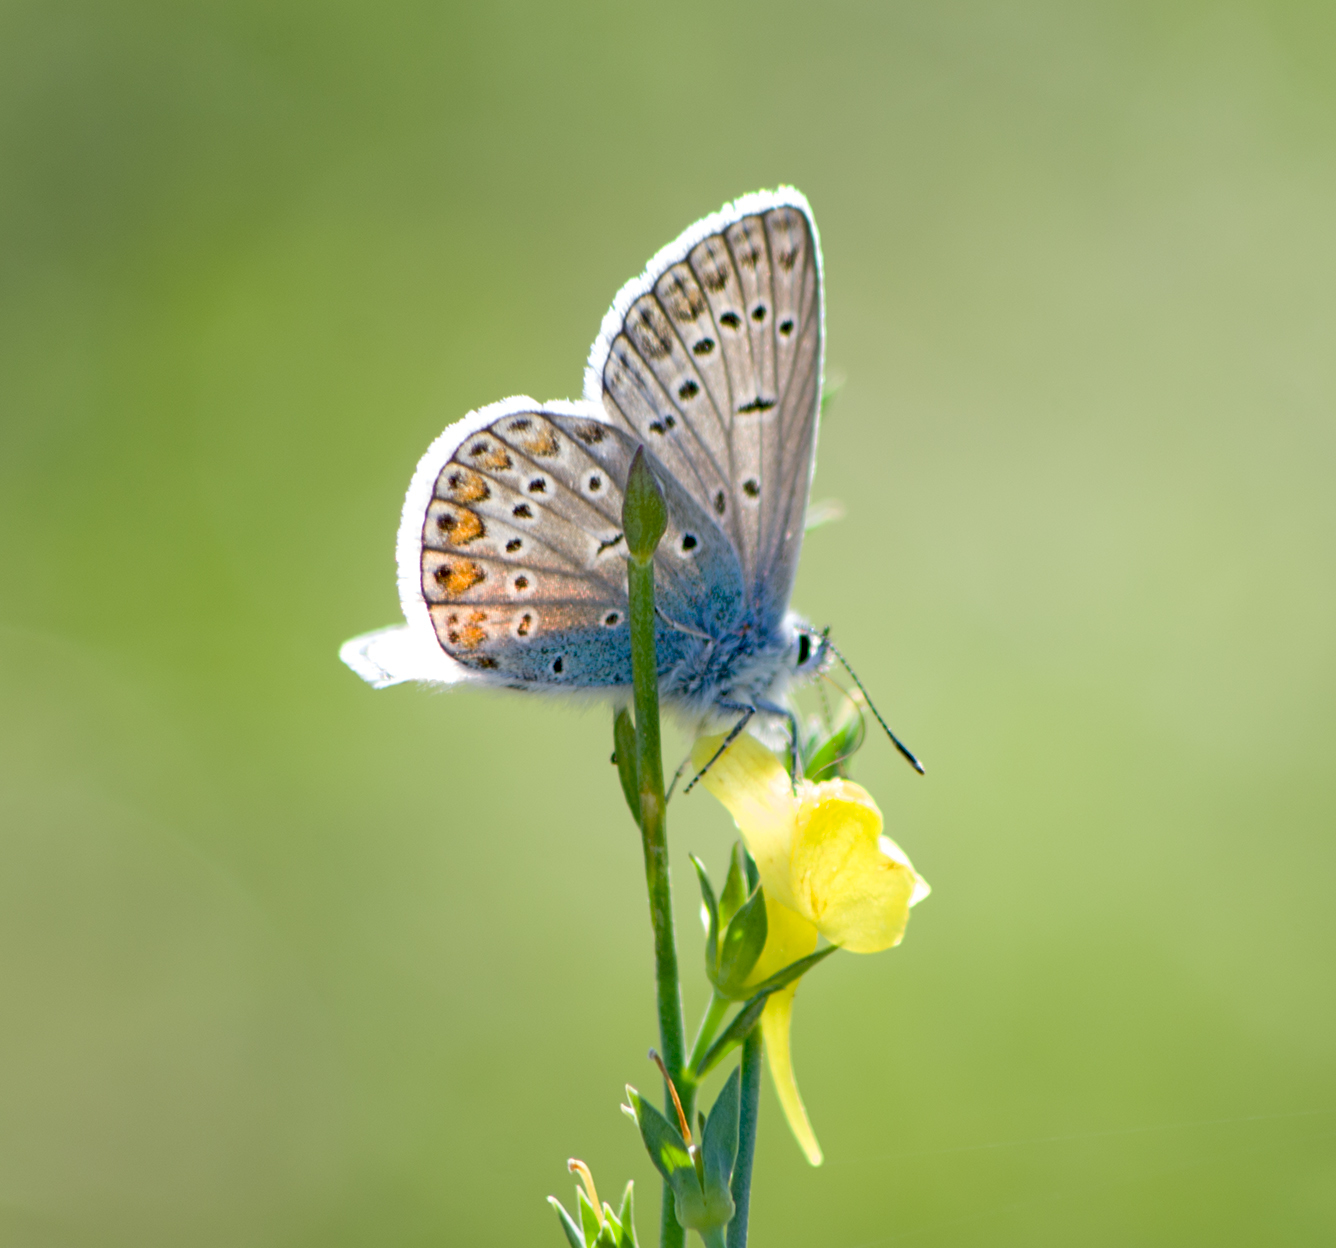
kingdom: Animalia
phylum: Arthropoda
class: Insecta
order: Lepidoptera
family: Lycaenidae
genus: Polyommatus
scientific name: Polyommatus icarus
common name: Common blue
